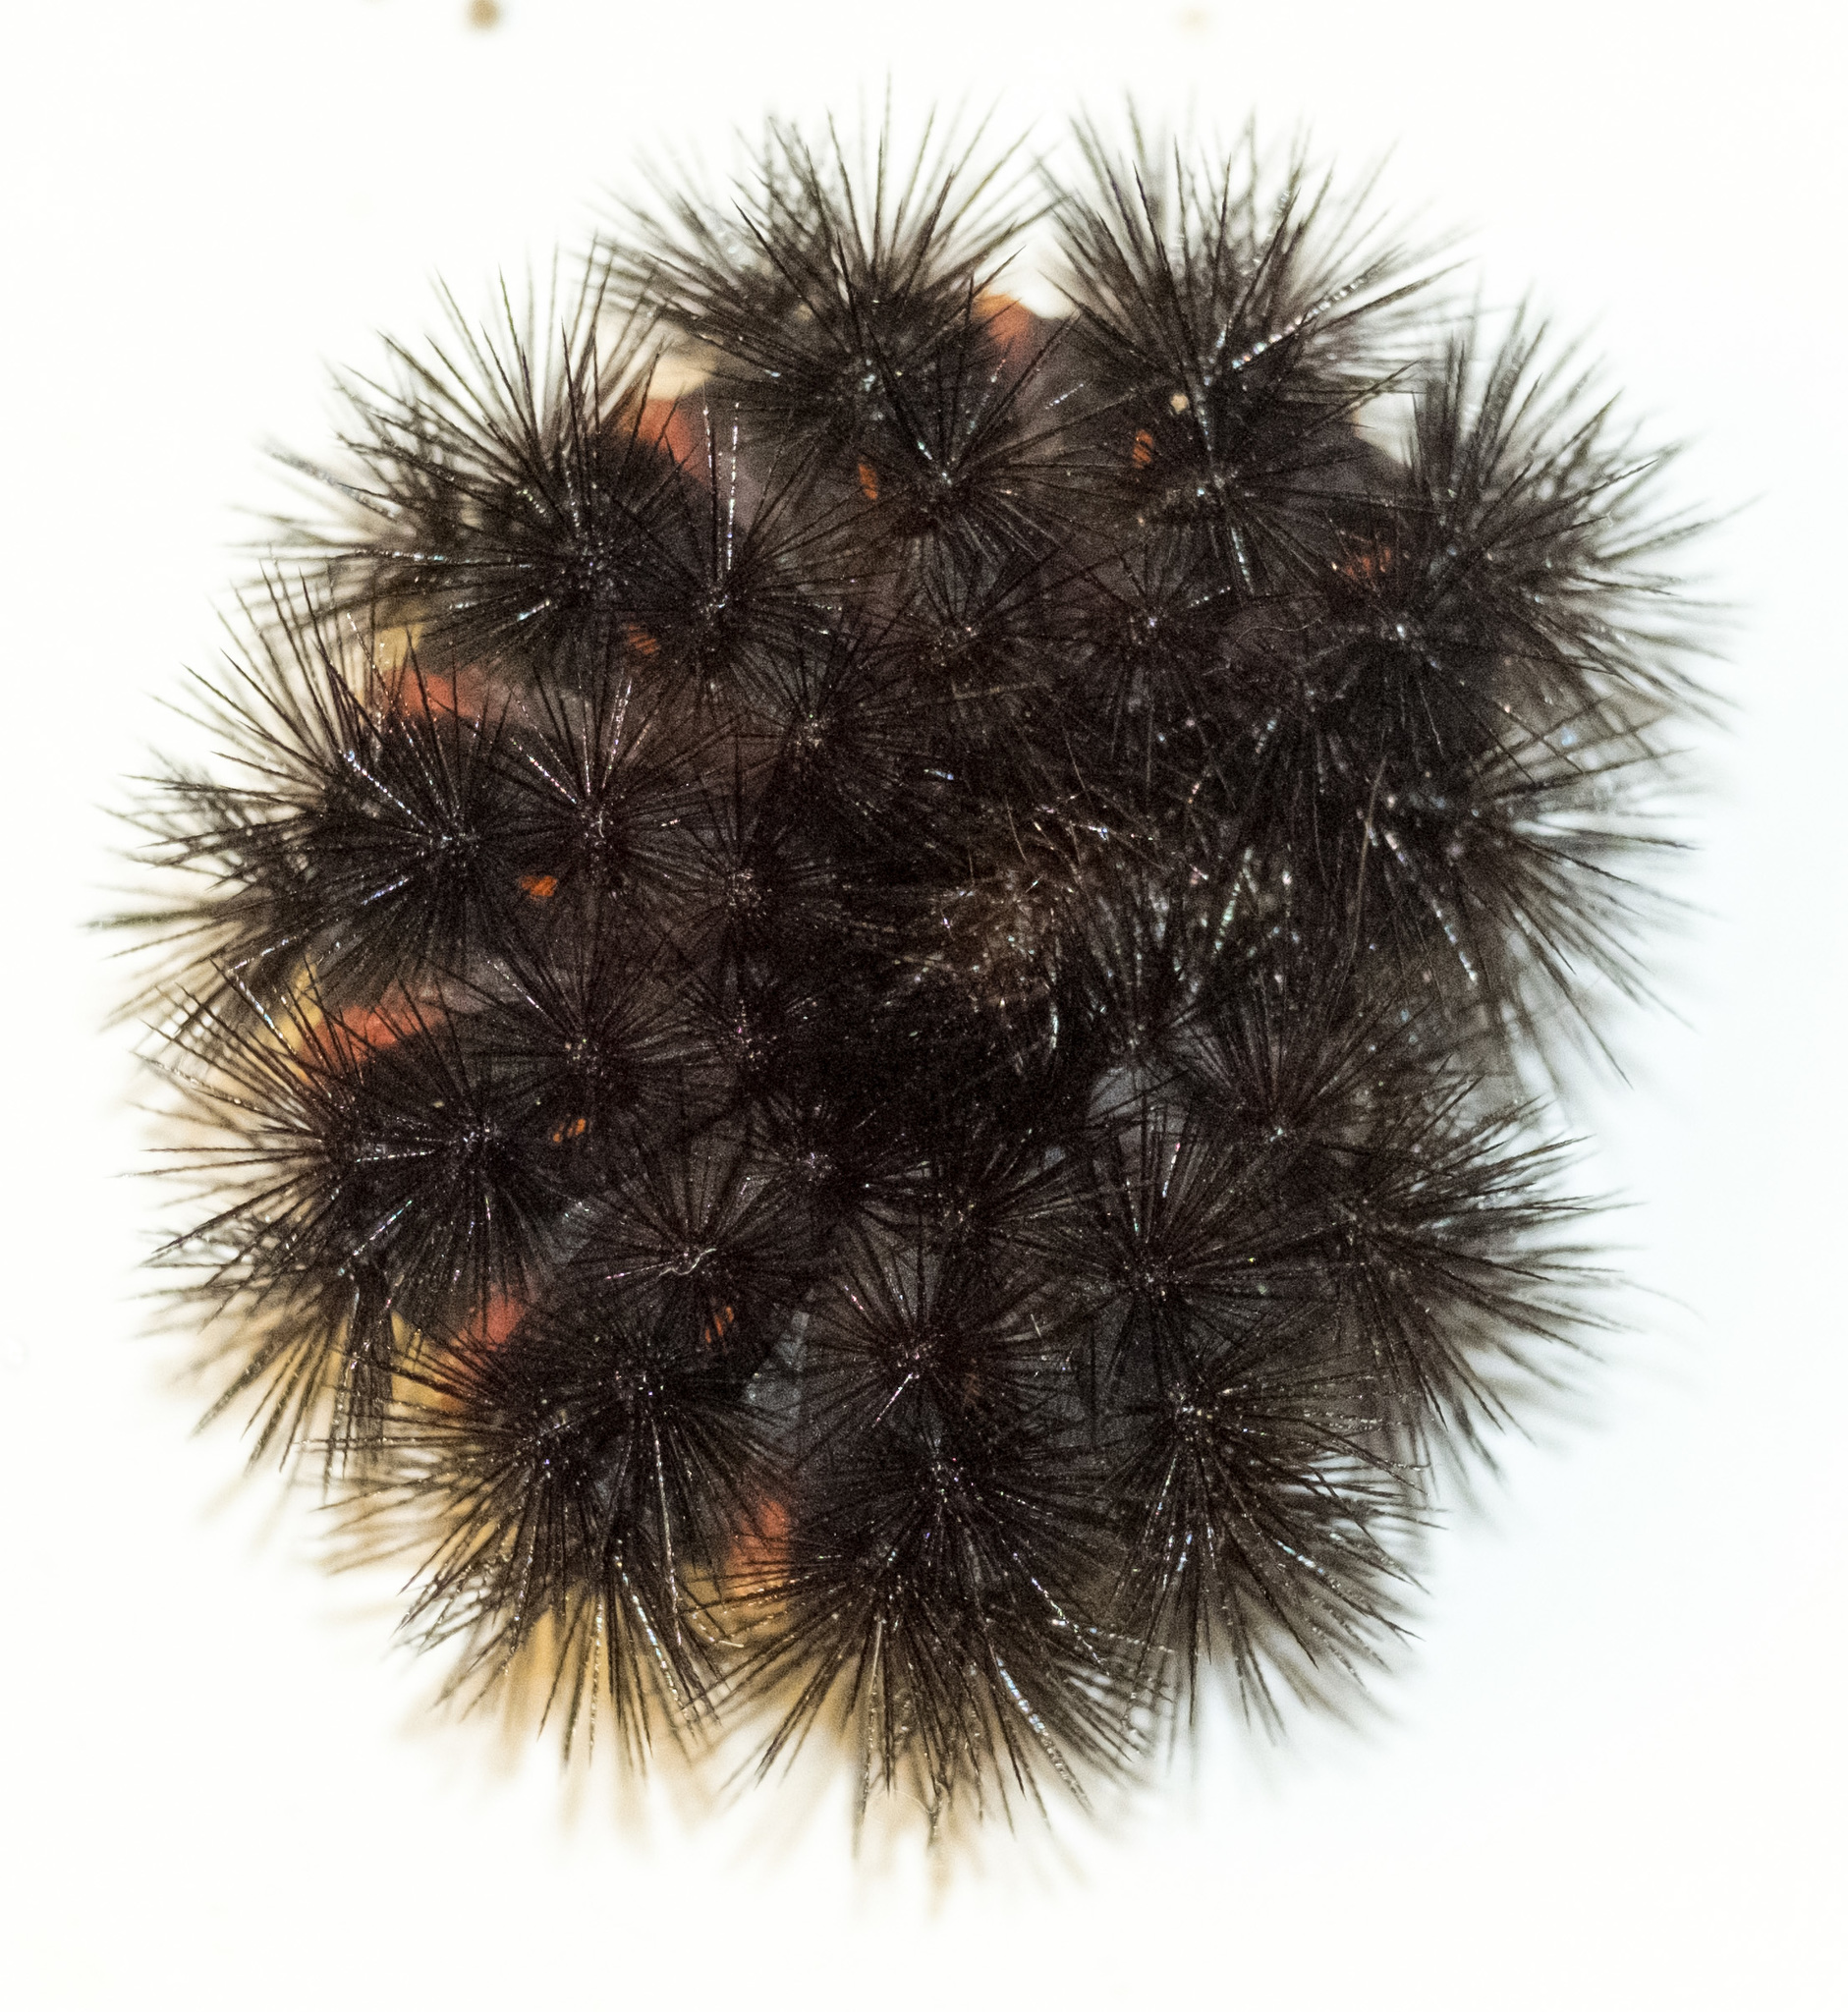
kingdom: Animalia
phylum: Arthropoda
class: Insecta
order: Lepidoptera
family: Erebidae
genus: Hypercompe
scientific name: Hypercompe scribonia
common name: Giant leopard moth
